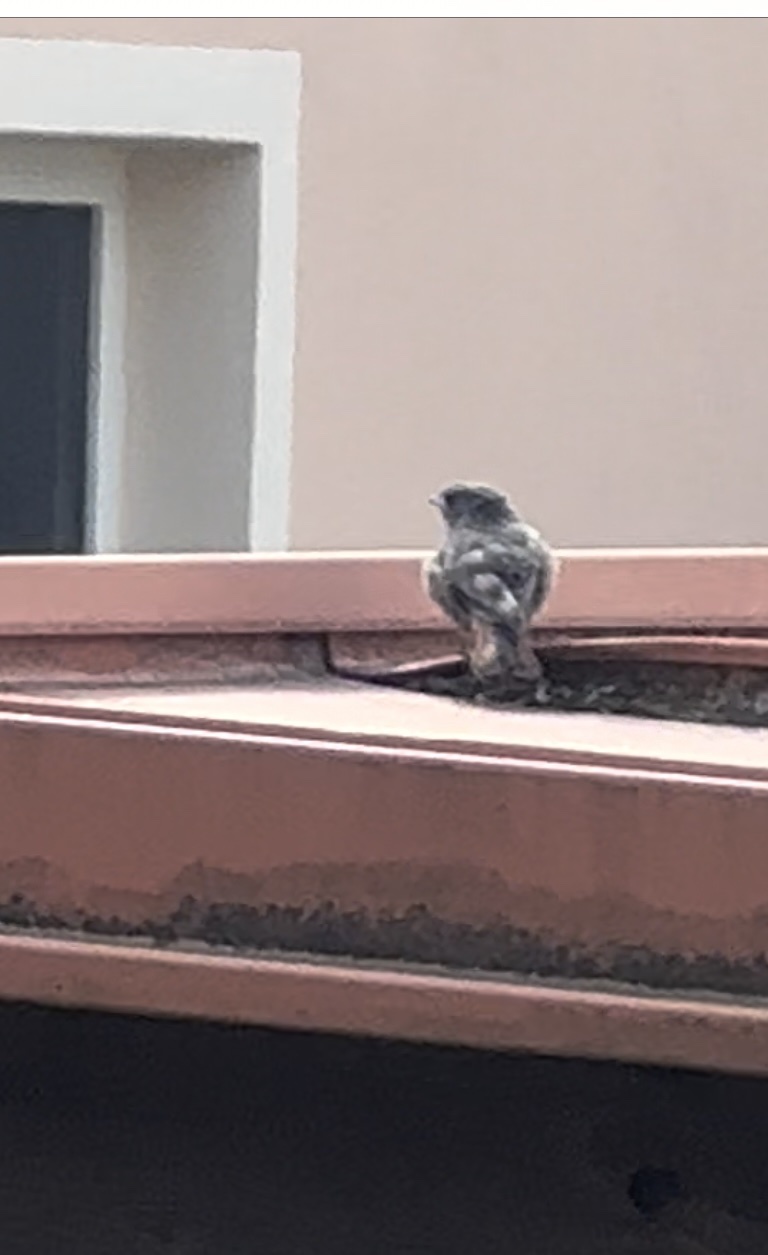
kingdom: Animalia
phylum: Chordata
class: Aves
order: Passeriformes
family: Muscicapidae
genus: Phoenicurus
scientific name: Phoenicurus ochruros
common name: Black redstart
